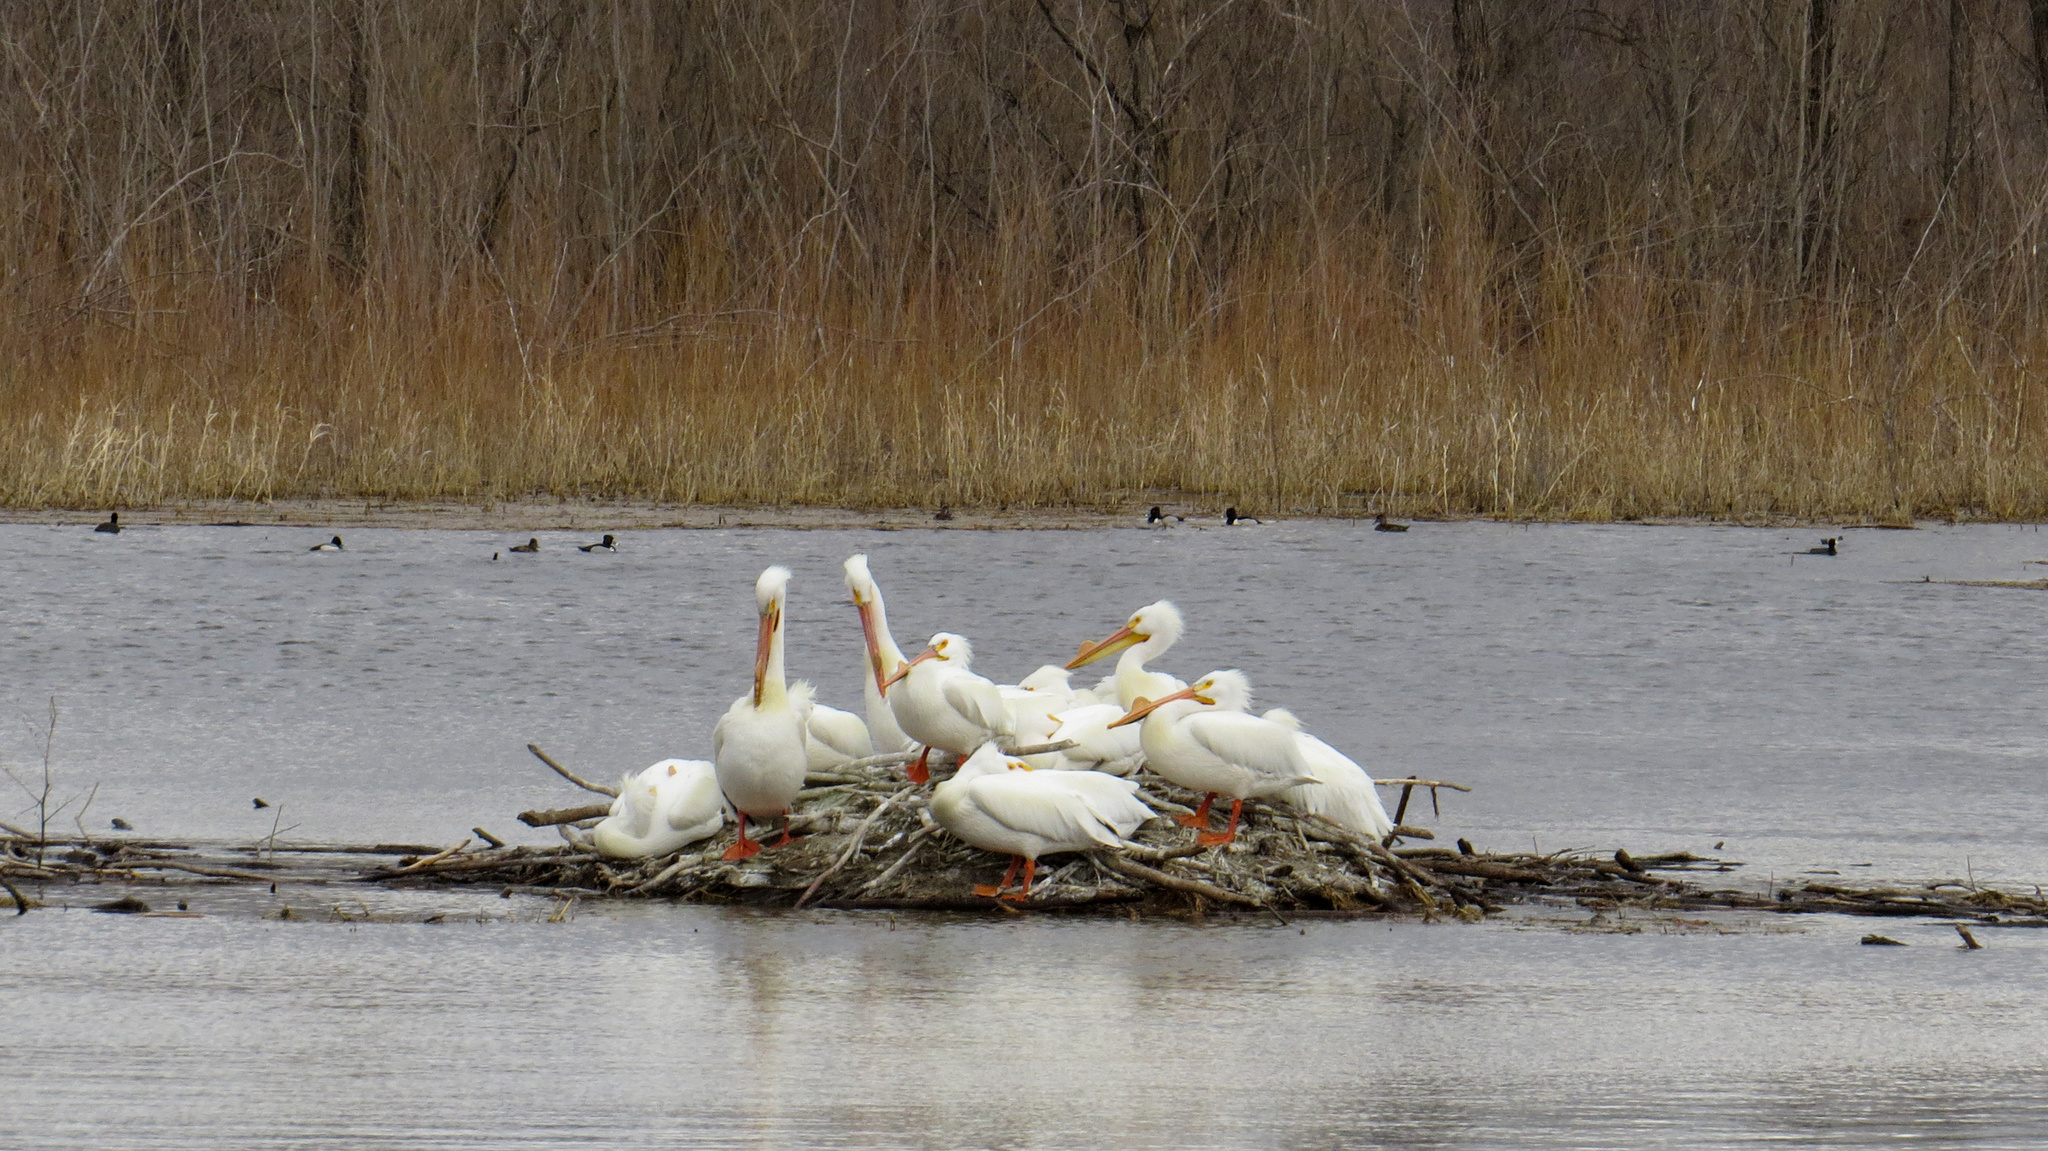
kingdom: Animalia
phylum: Chordata
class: Aves
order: Pelecaniformes
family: Pelecanidae
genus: Pelecanus
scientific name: Pelecanus erythrorhynchos
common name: American white pelican
